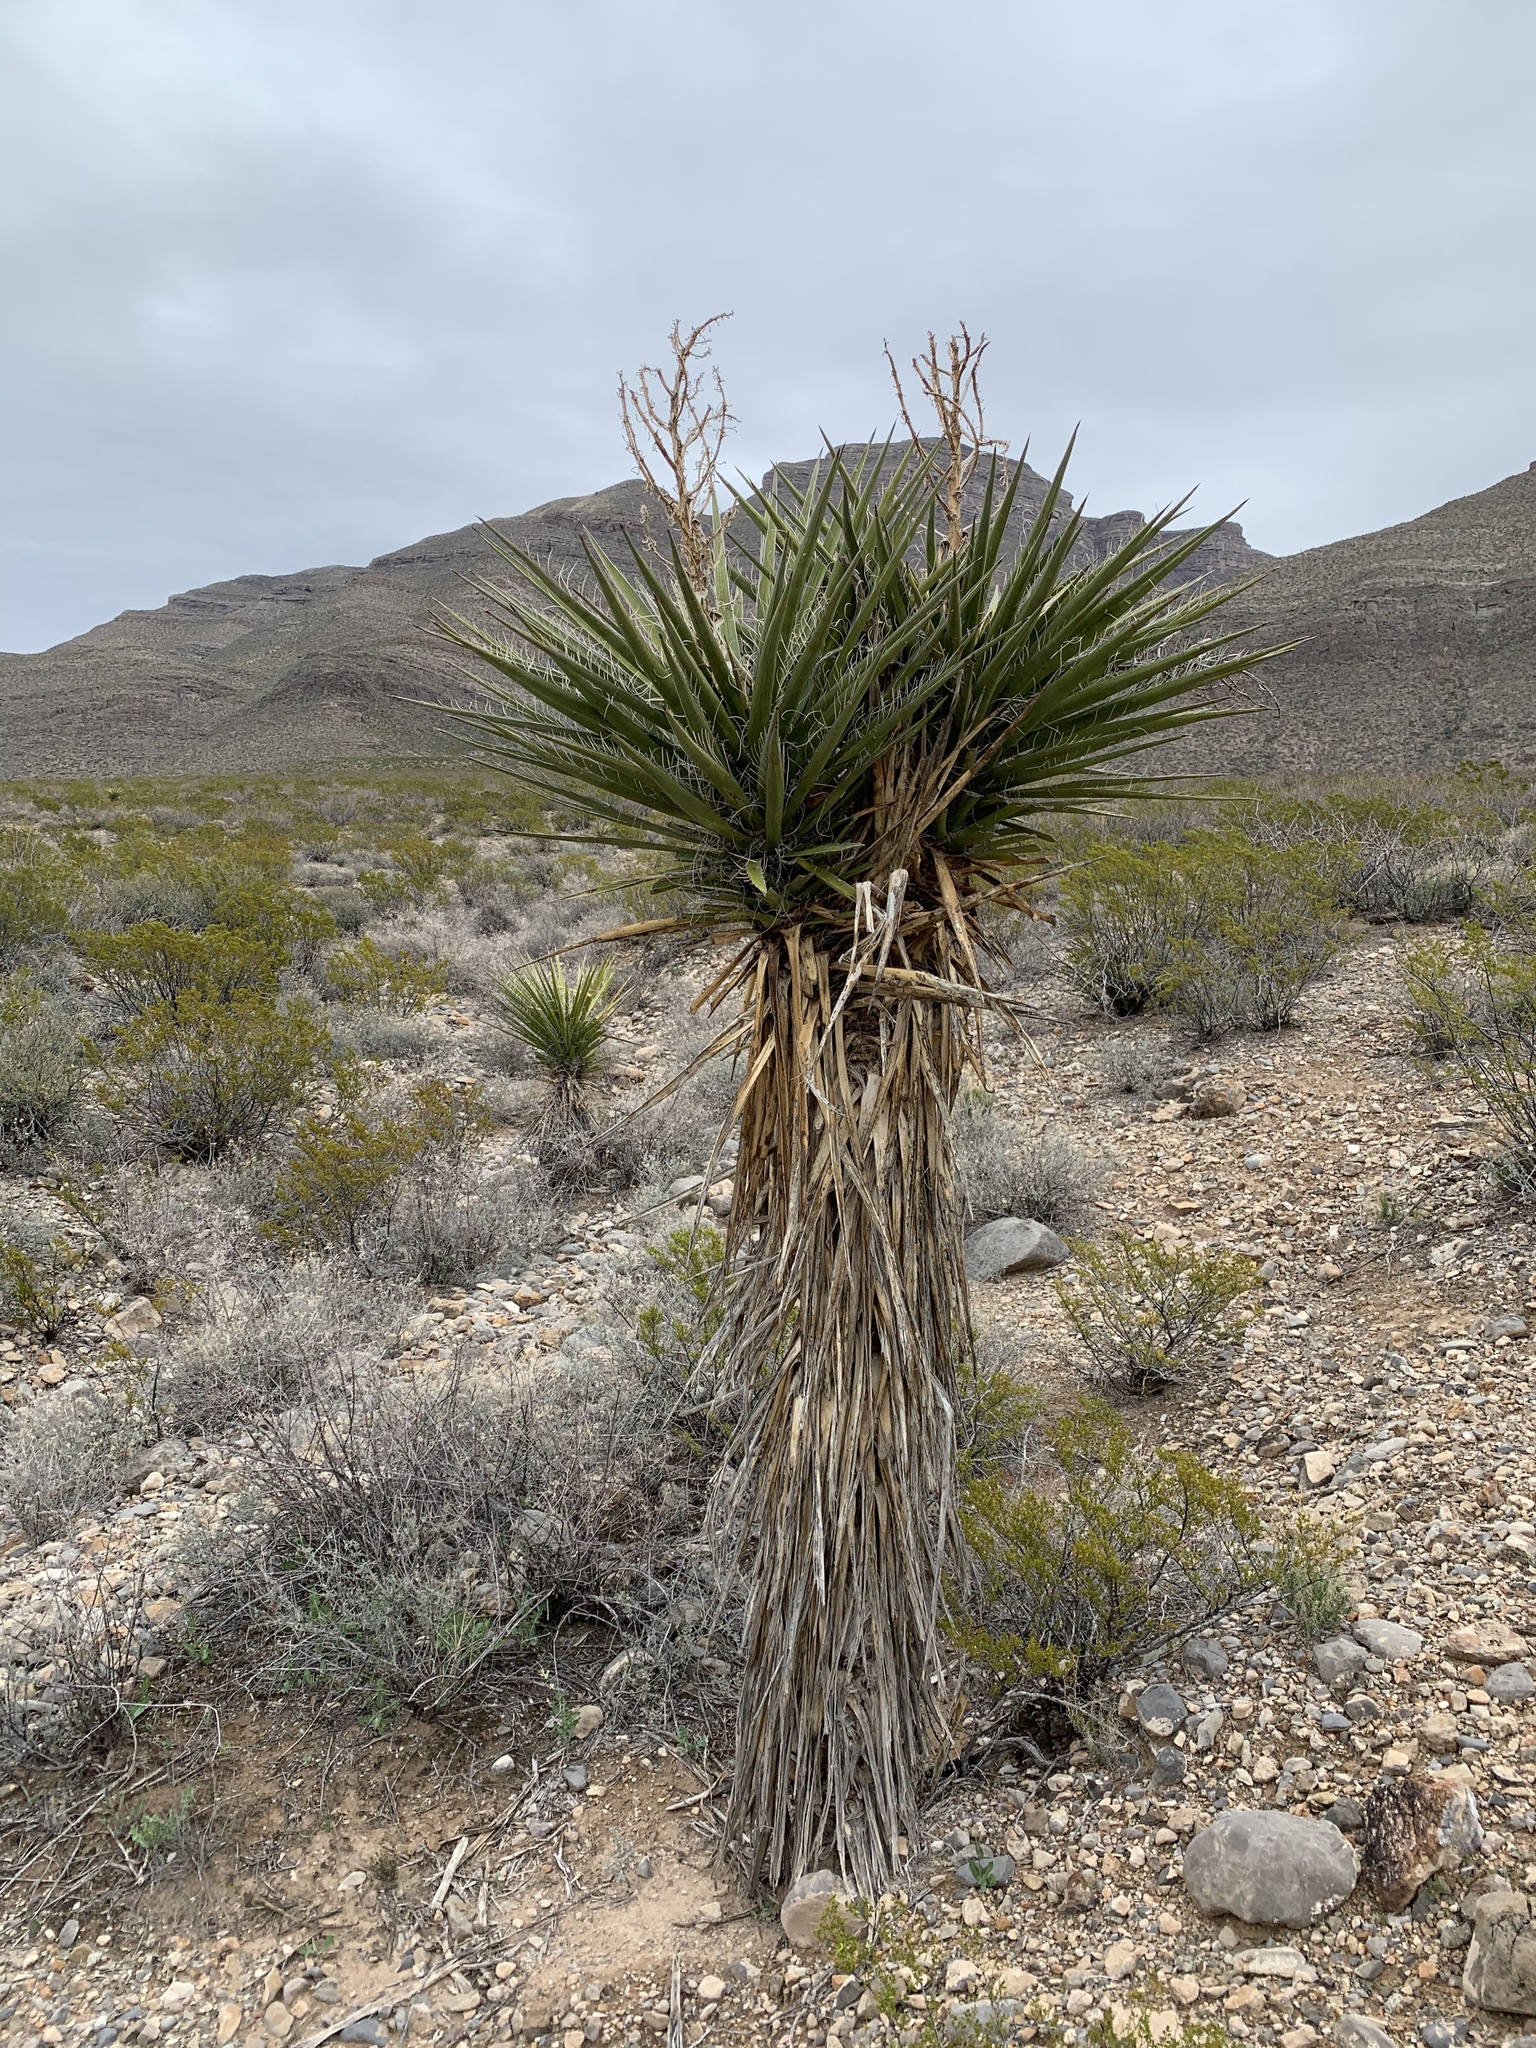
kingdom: Plantae
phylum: Tracheophyta
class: Liliopsida
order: Asparagales
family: Asparagaceae
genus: Yucca
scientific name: Yucca treculiana
